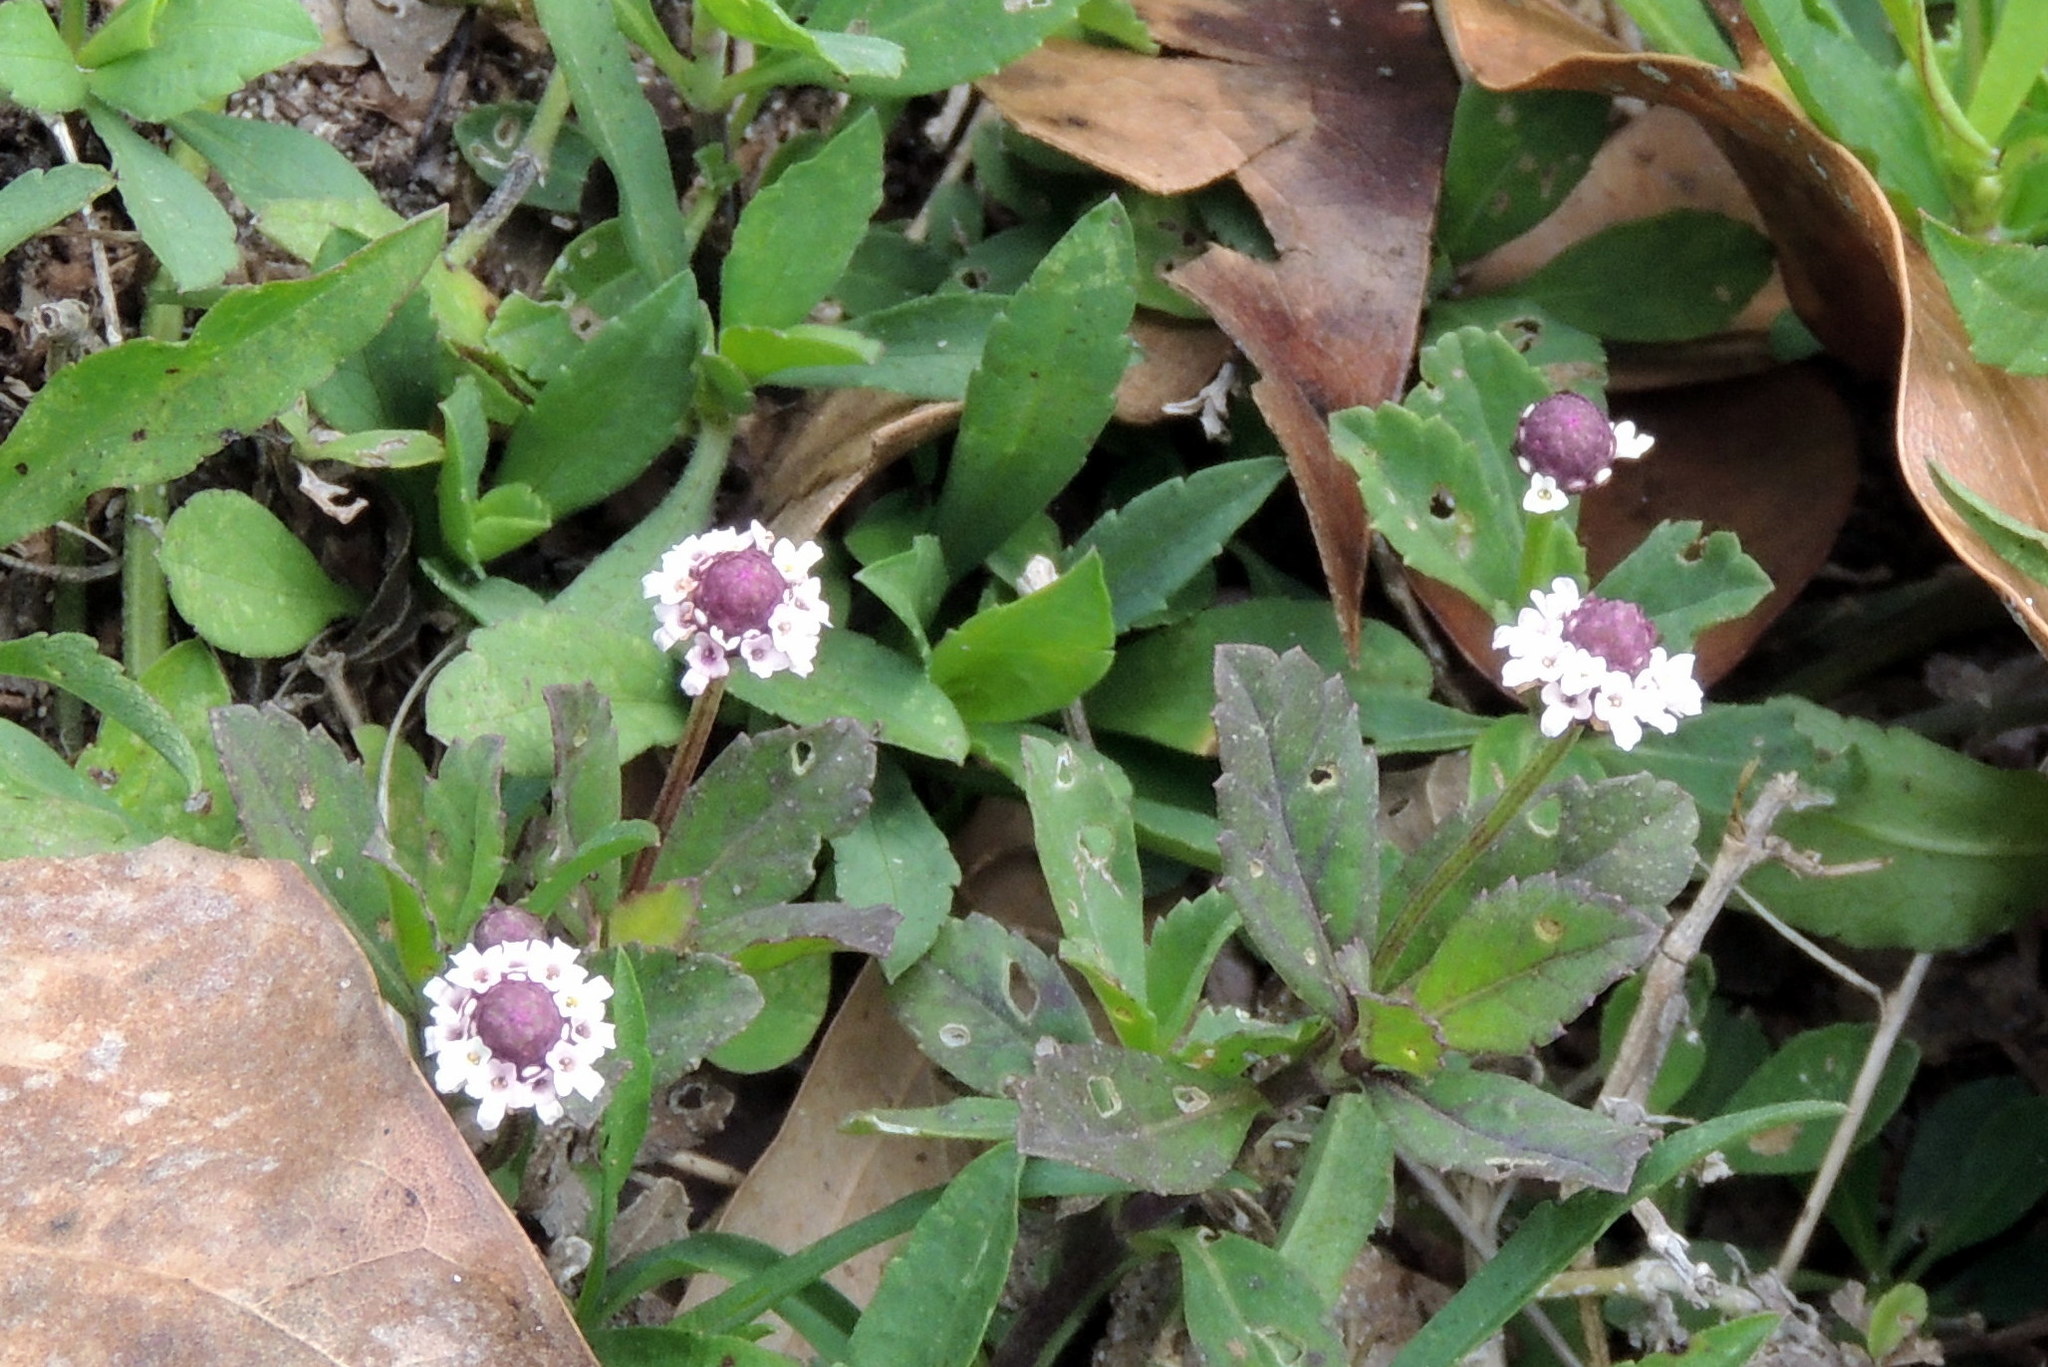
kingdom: Plantae
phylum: Tracheophyta
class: Magnoliopsida
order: Lamiales
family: Verbenaceae
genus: Phyla
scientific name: Phyla nodiflora
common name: Frogfruit
